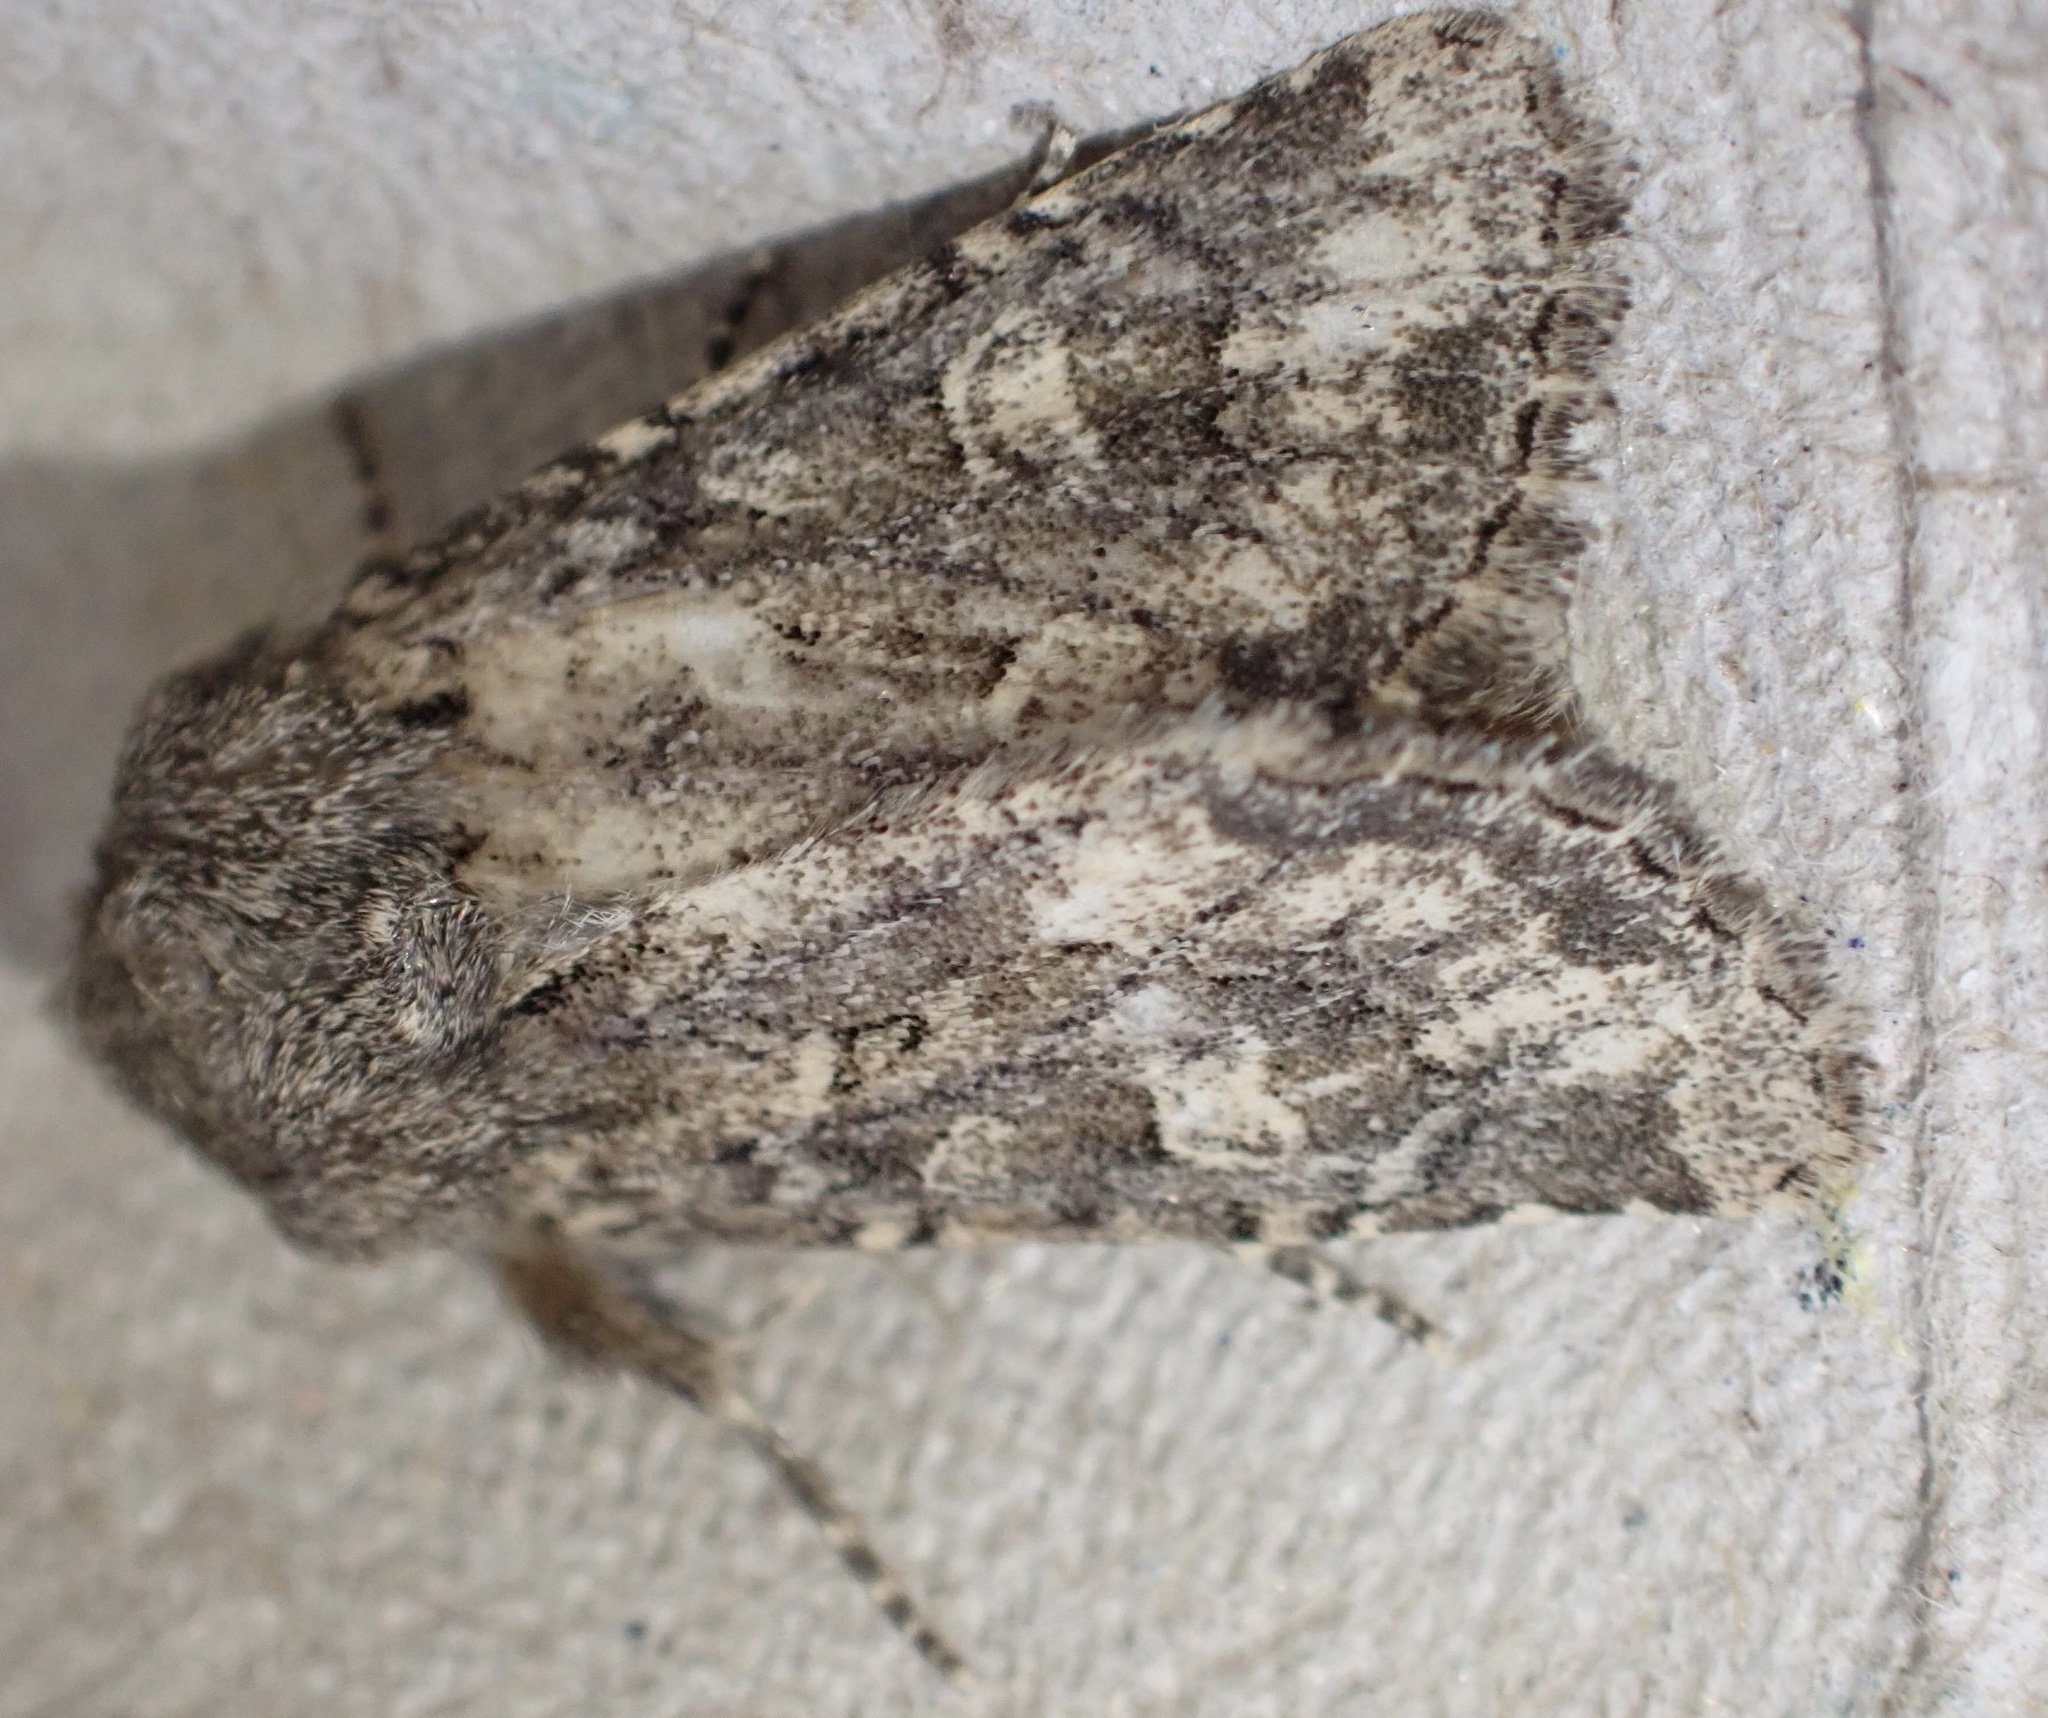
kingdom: Animalia
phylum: Arthropoda
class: Insecta
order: Lepidoptera
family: Noctuidae
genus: Luperina
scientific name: Luperina testacea
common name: Flounced rustic
